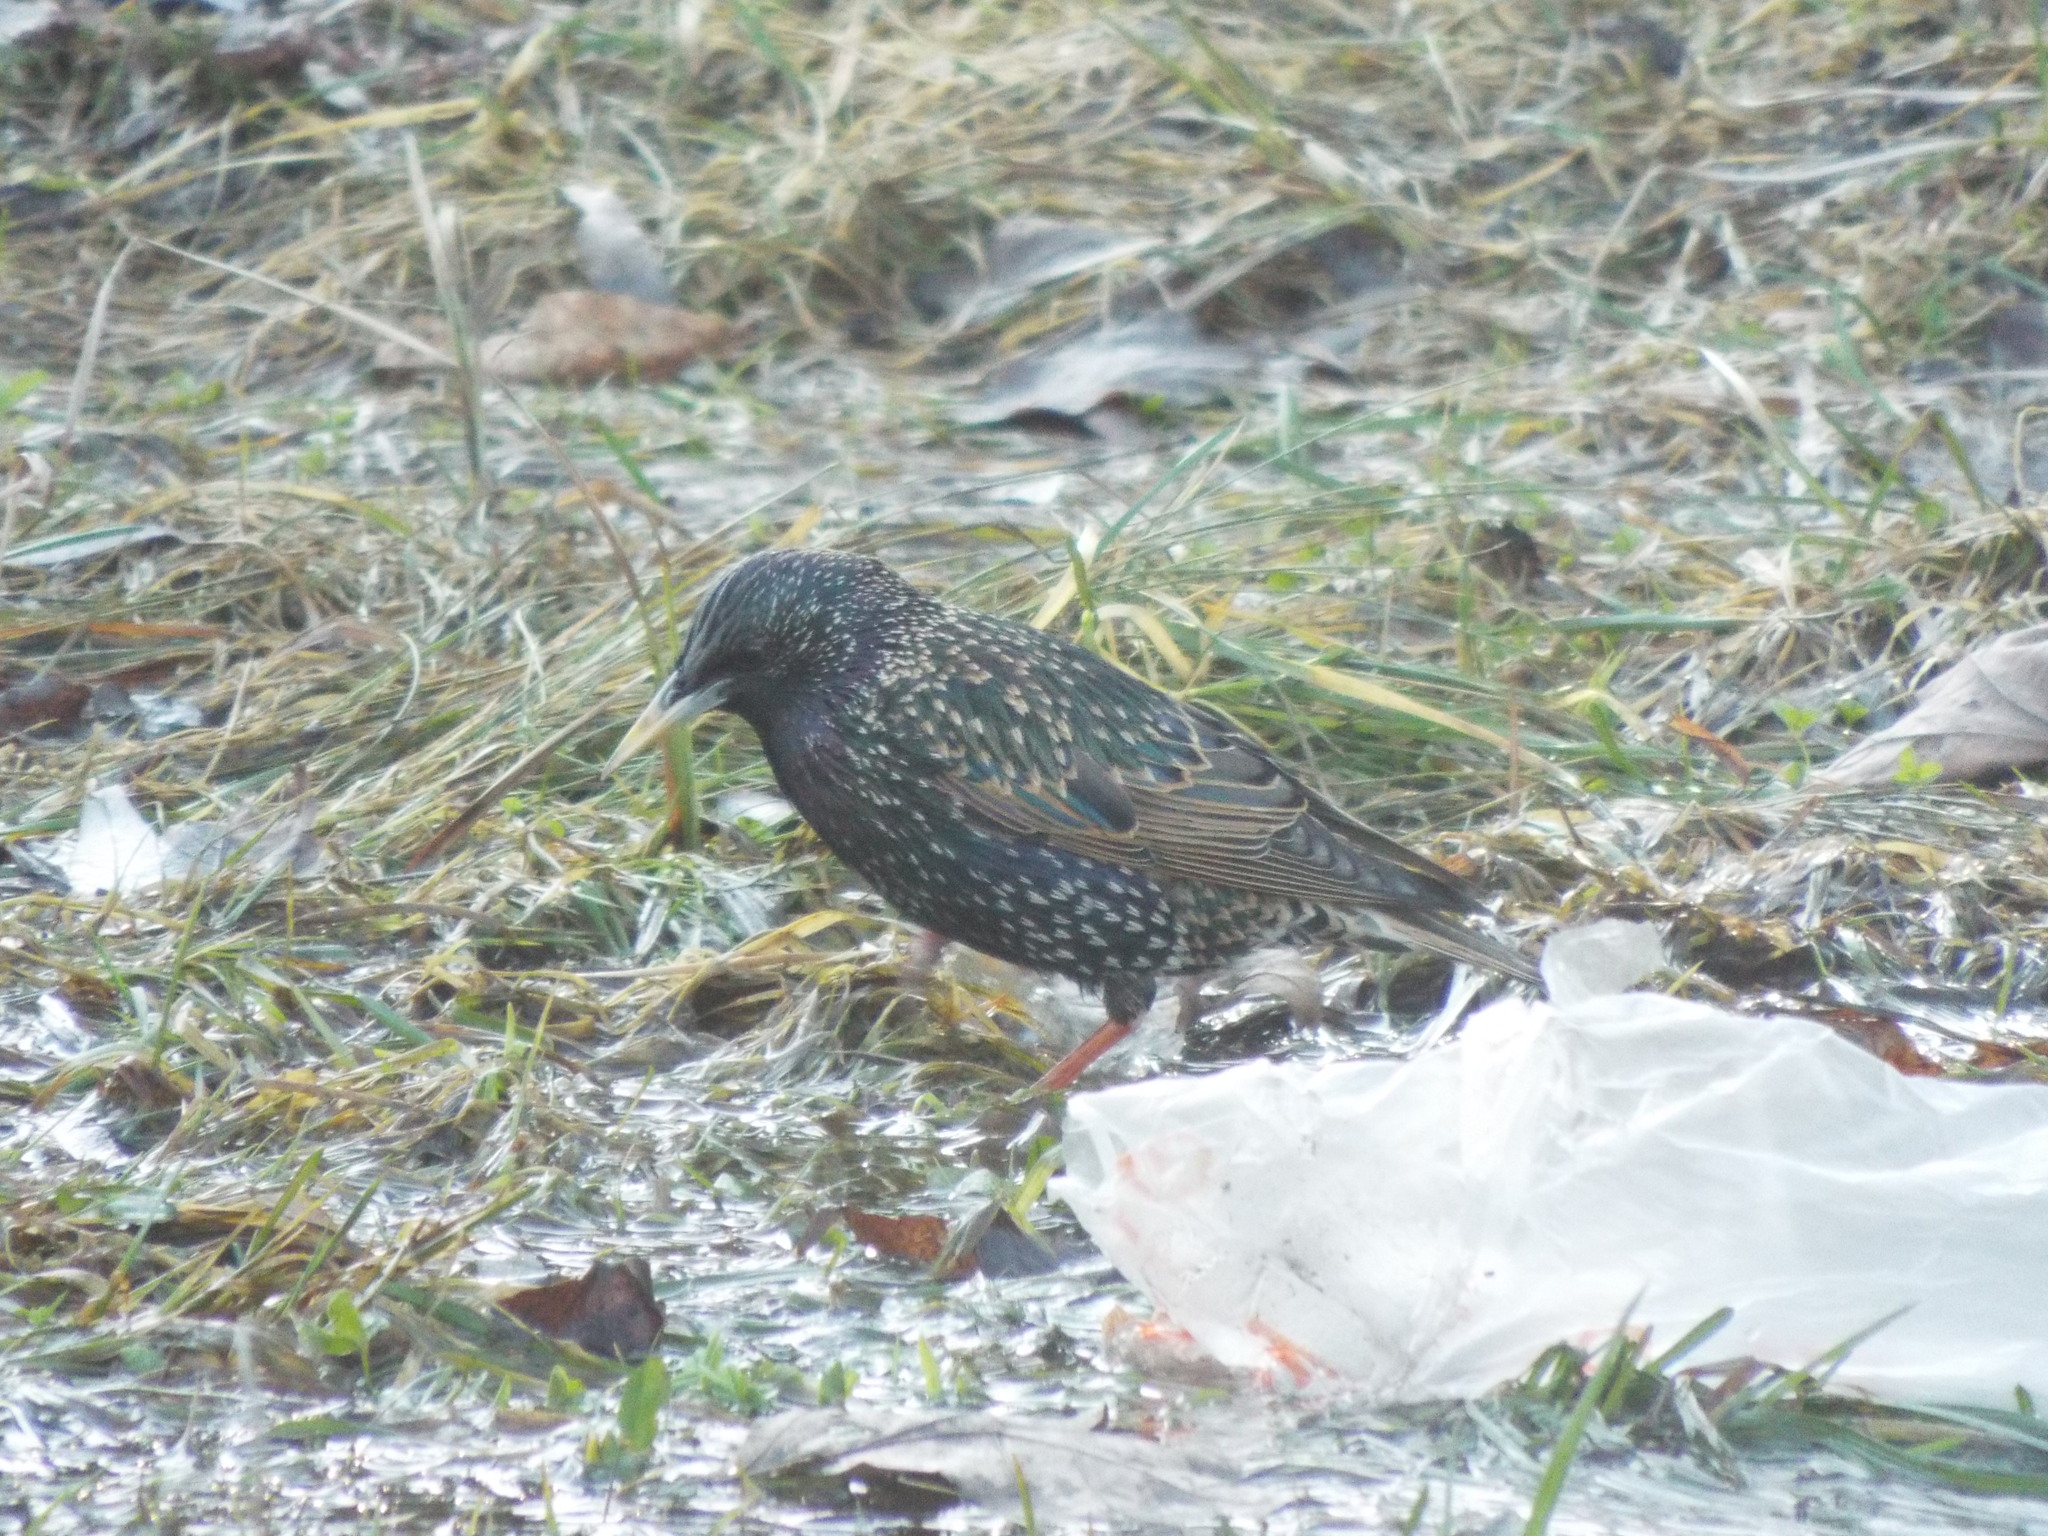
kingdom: Animalia
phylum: Chordata
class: Aves
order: Passeriformes
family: Sturnidae
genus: Sturnus
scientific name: Sturnus vulgaris
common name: Common starling
